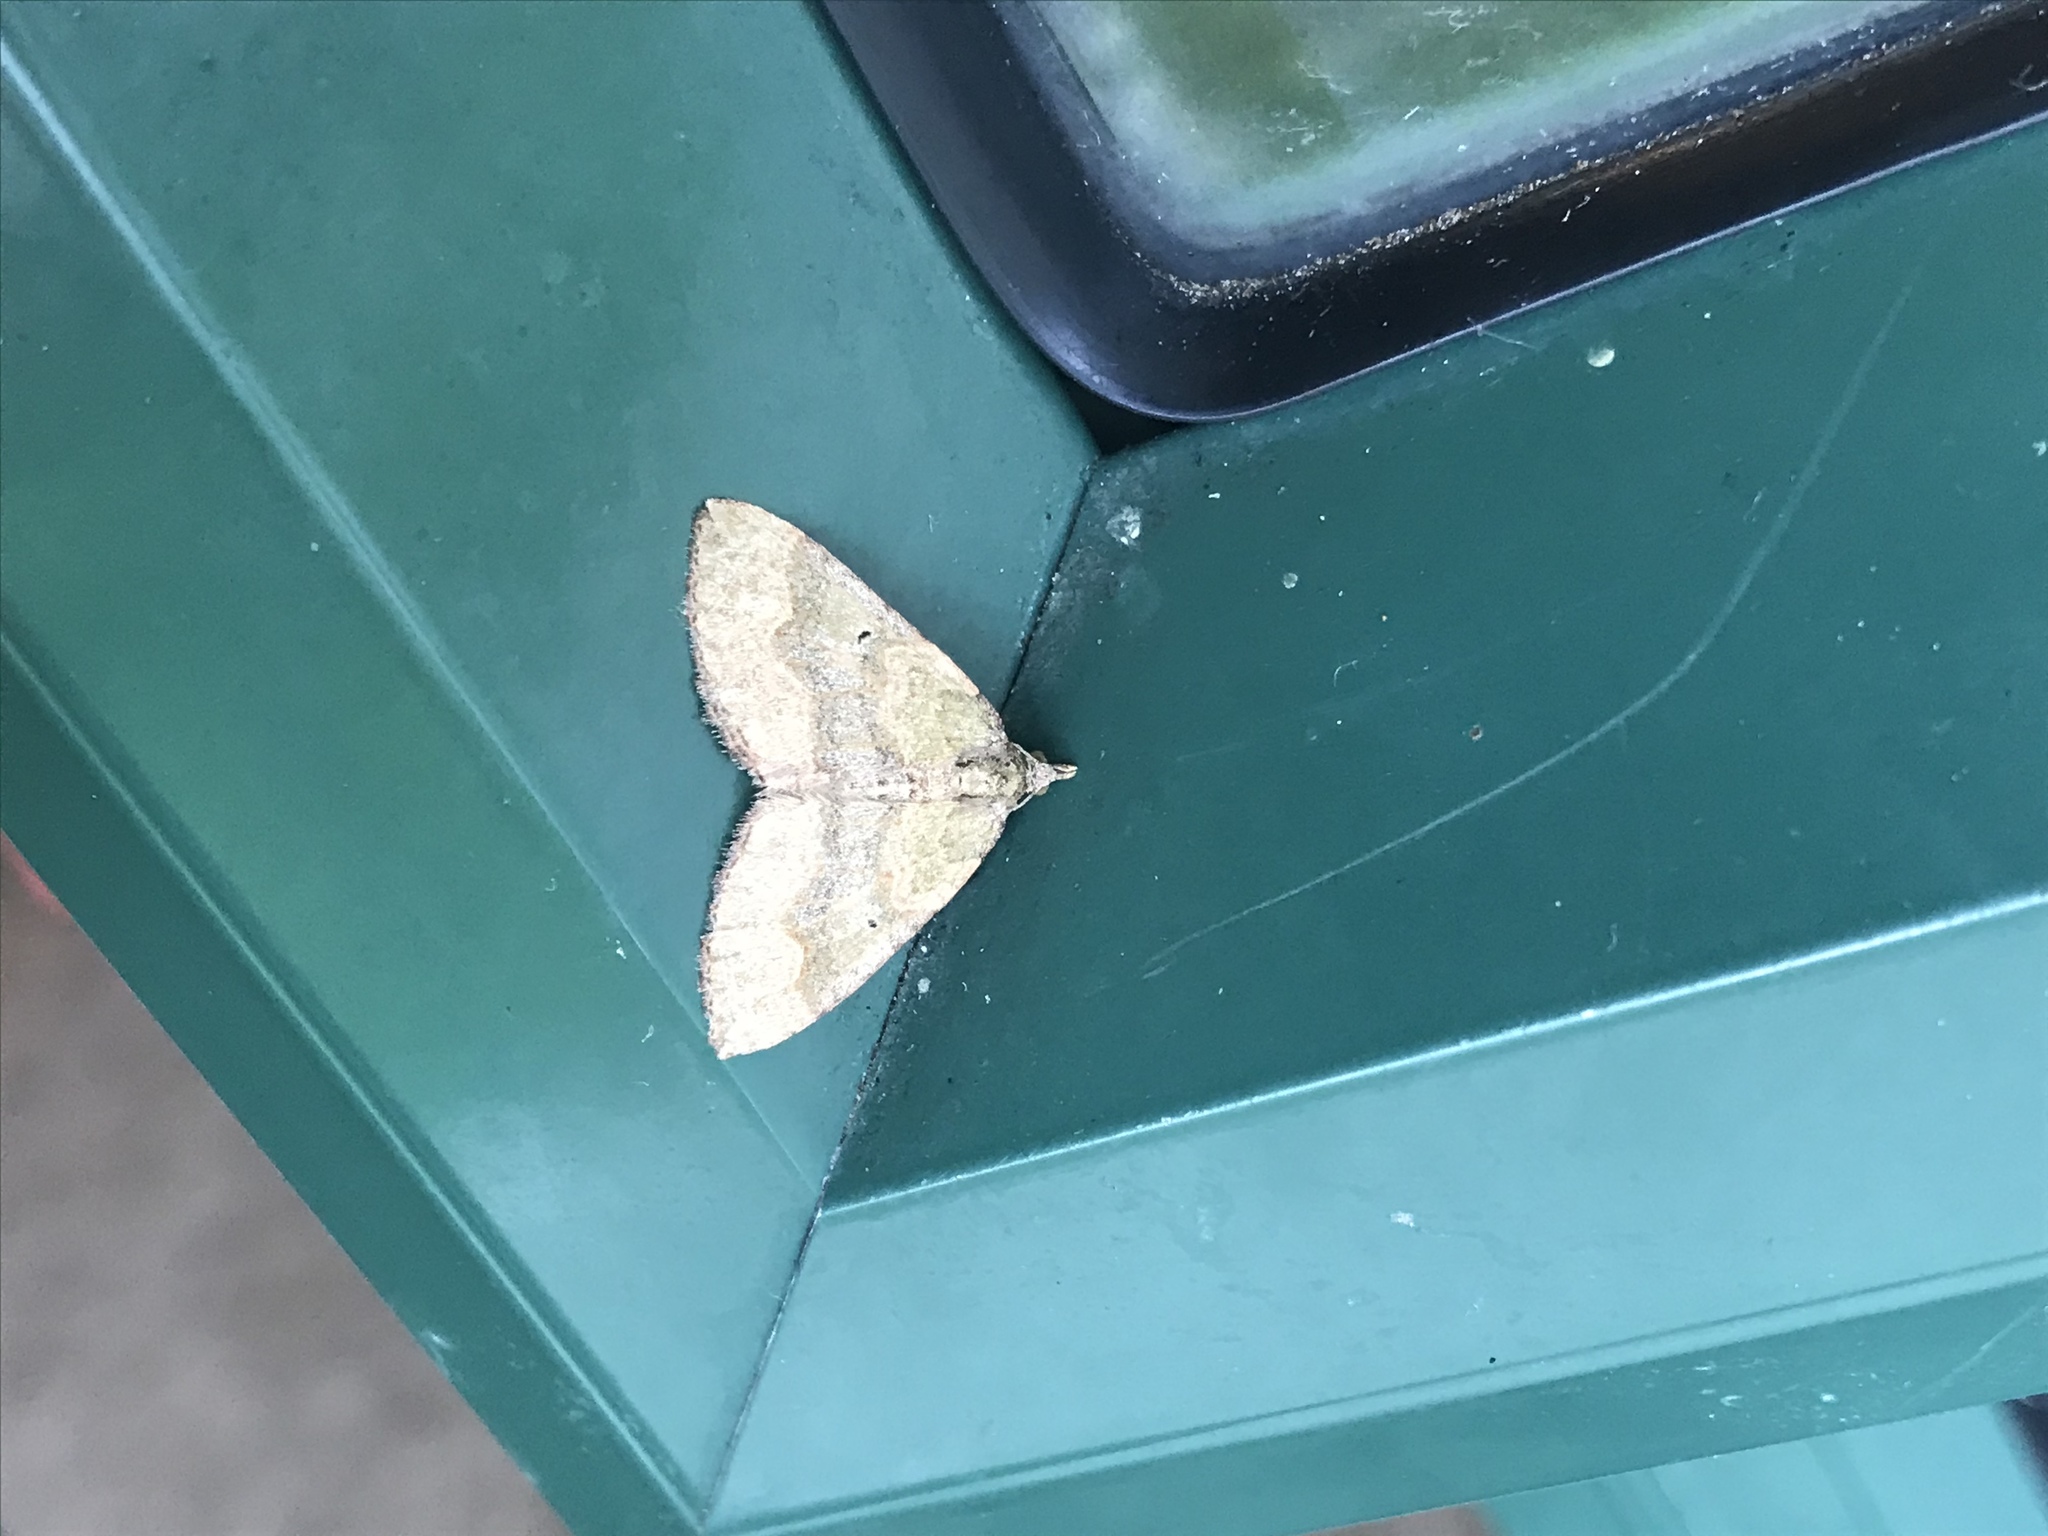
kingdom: Animalia
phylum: Arthropoda
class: Insecta
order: Lepidoptera
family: Geometridae
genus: Epyaxa
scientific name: Epyaxa rosearia
